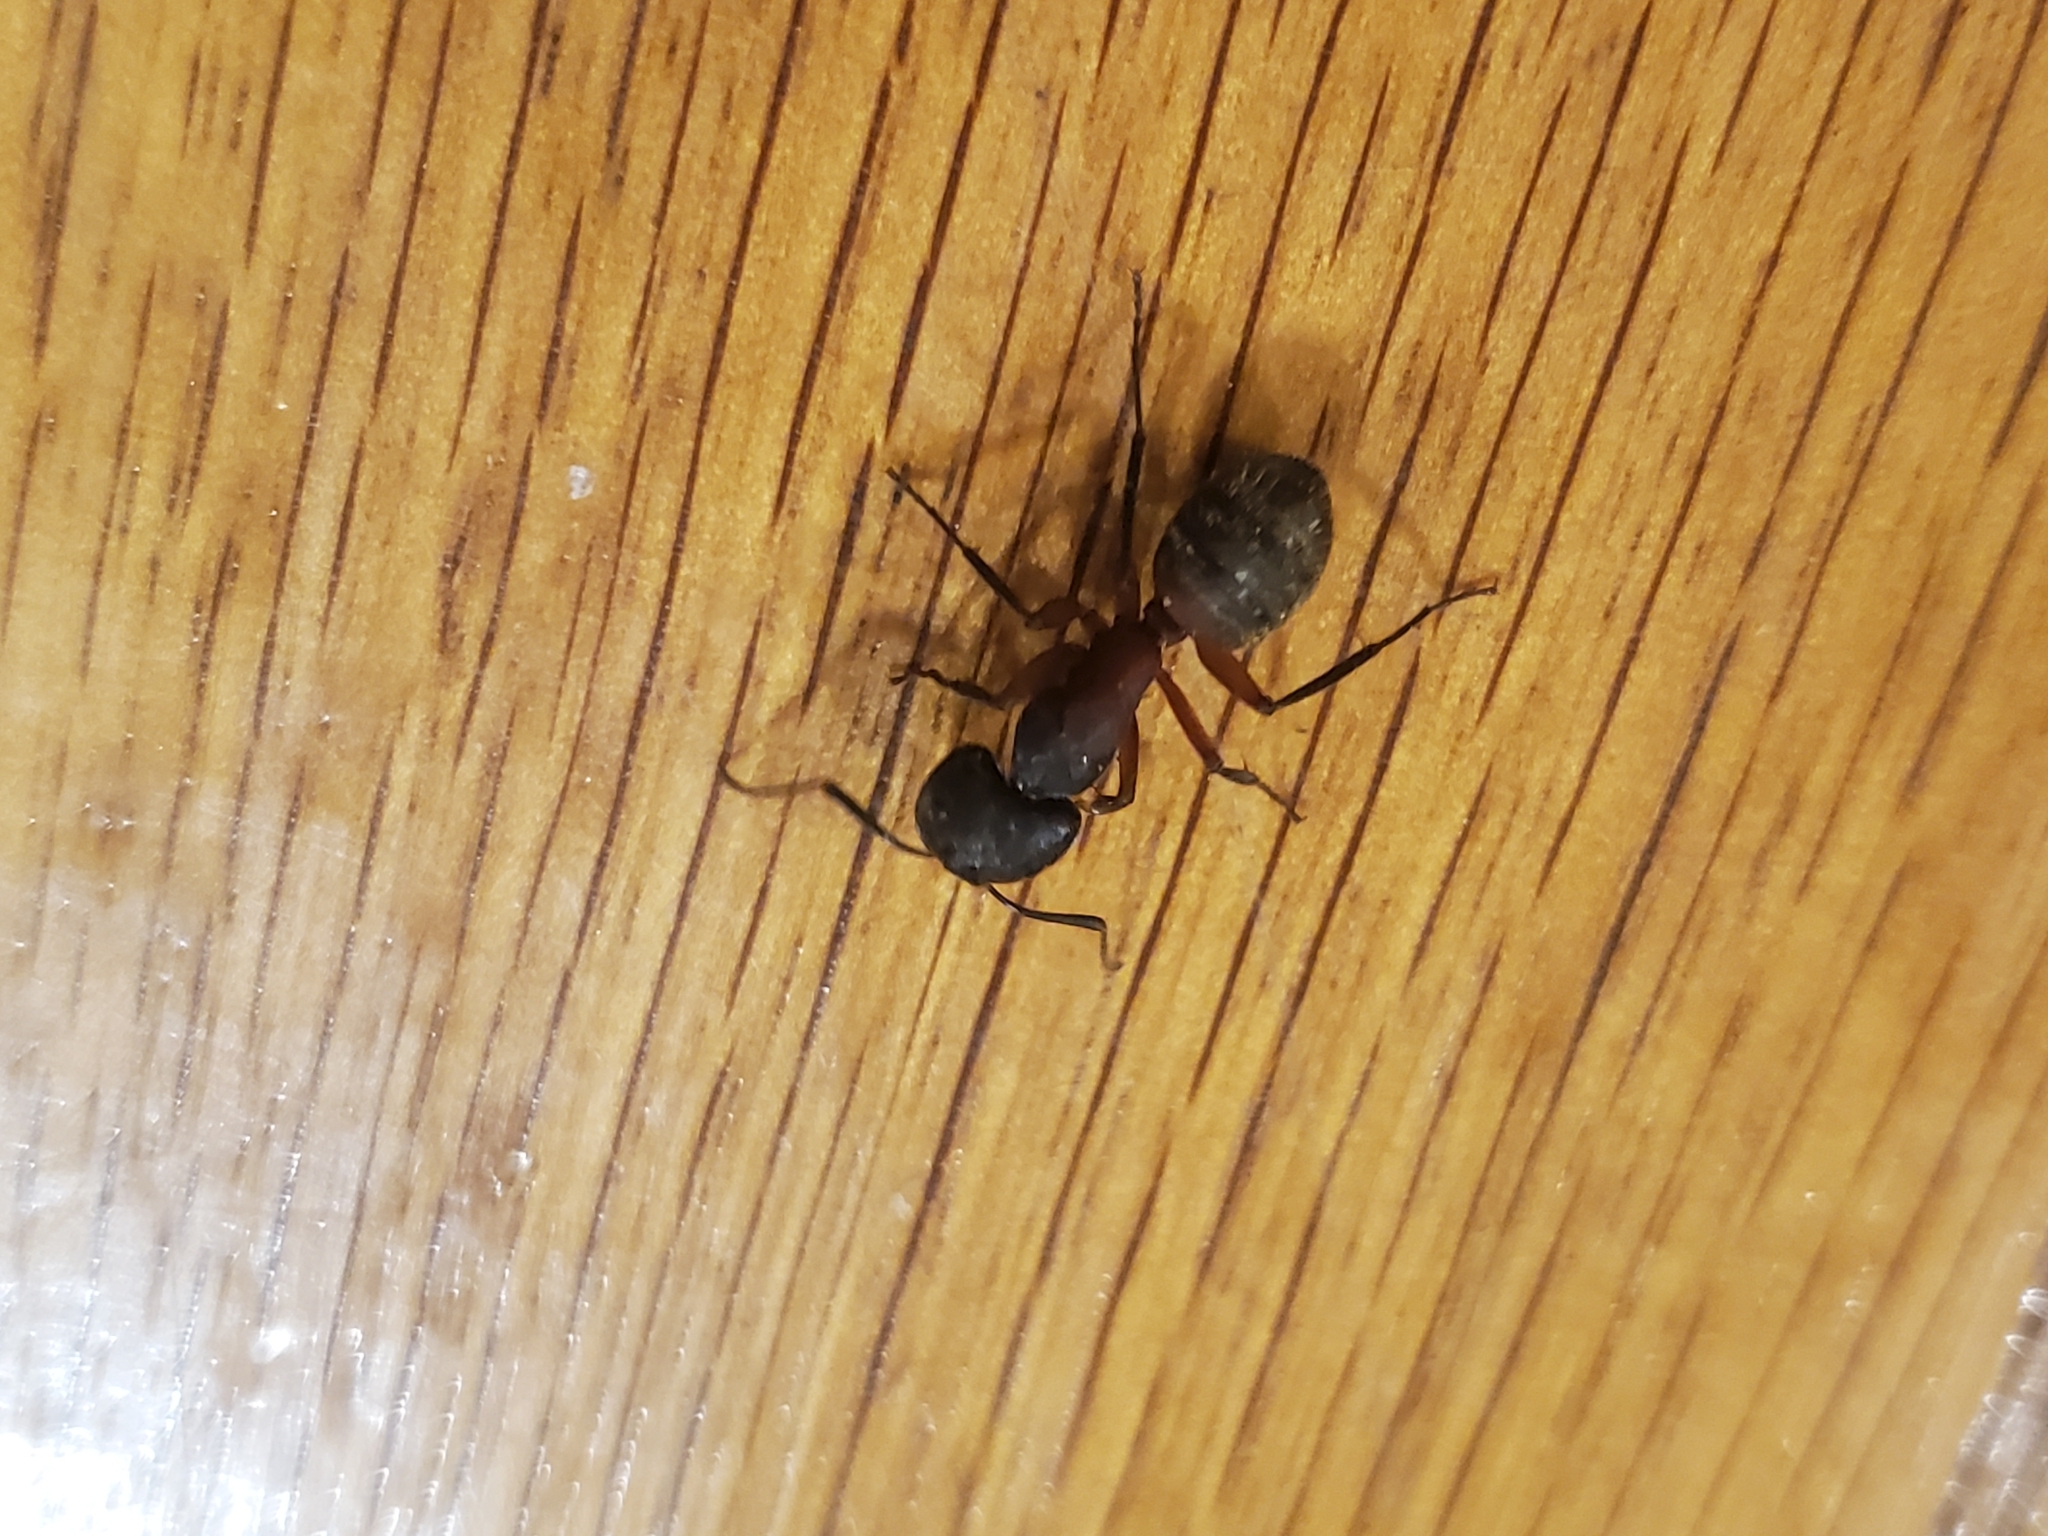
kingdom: Animalia
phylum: Arthropoda
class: Insecta
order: Hymenoptera
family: Formicidae
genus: Camponotus
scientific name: Camponotus chromaiodes
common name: Red carpenter ant
